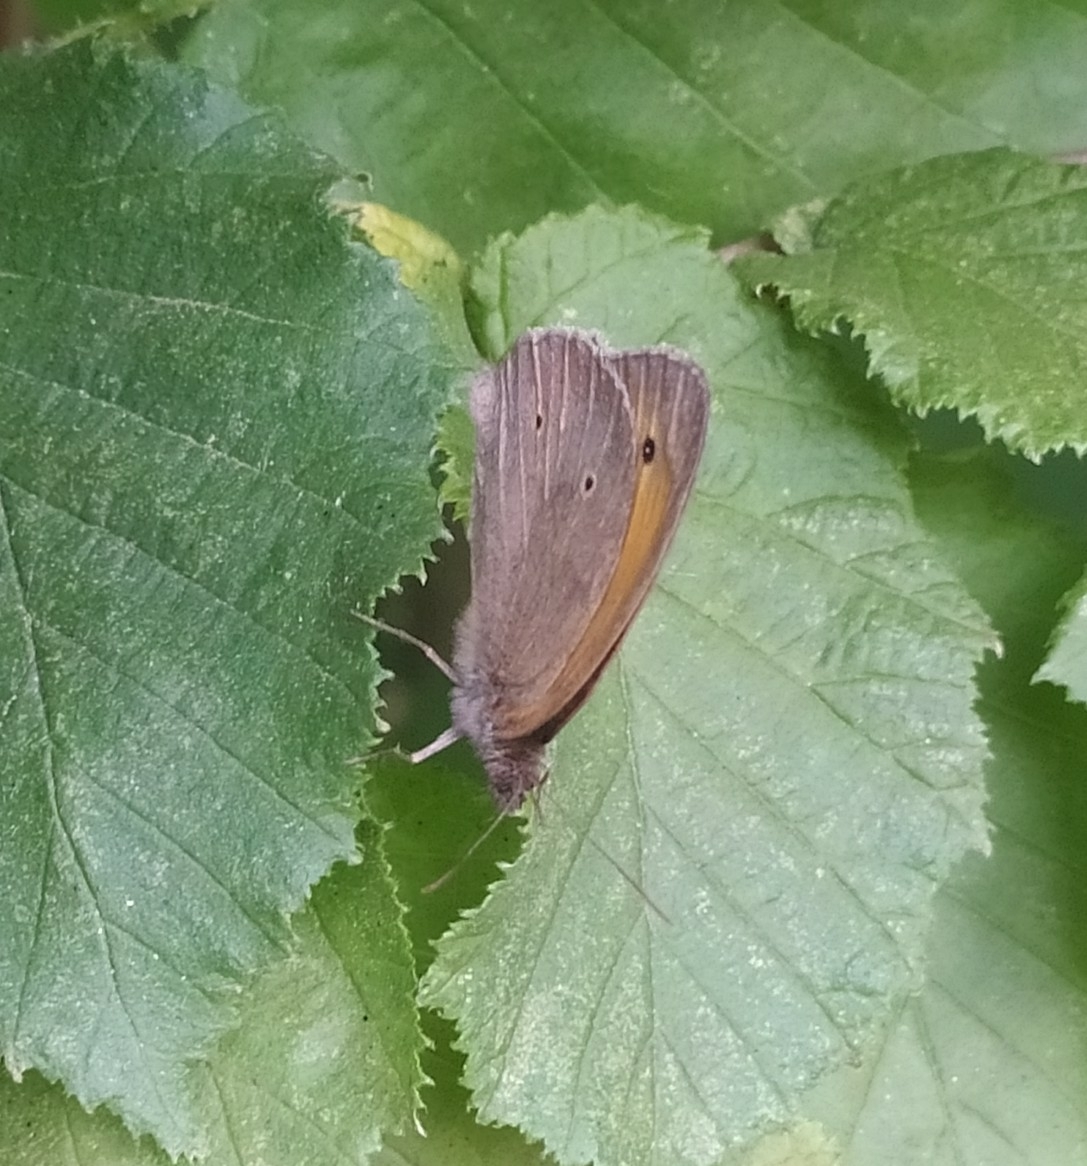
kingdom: Animalia
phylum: Arthropoda
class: Insecta
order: Lepidoptera
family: Nymphalidae
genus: Maniola
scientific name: Maniola jurtina
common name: Meadow brown
